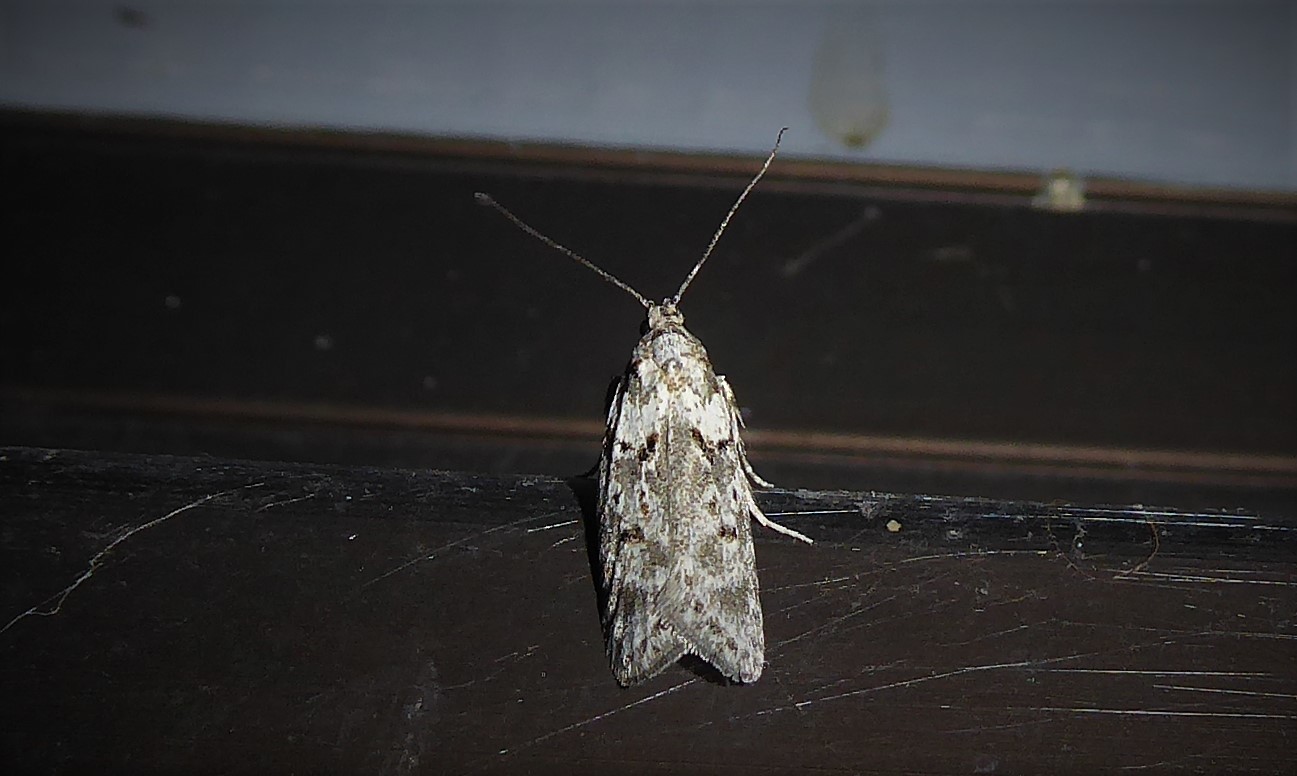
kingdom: Animalia
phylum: Arthropoda
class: Insecta
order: Lepidoptera
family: Oecophoridae
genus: Izatha
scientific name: Izatha convulsella
